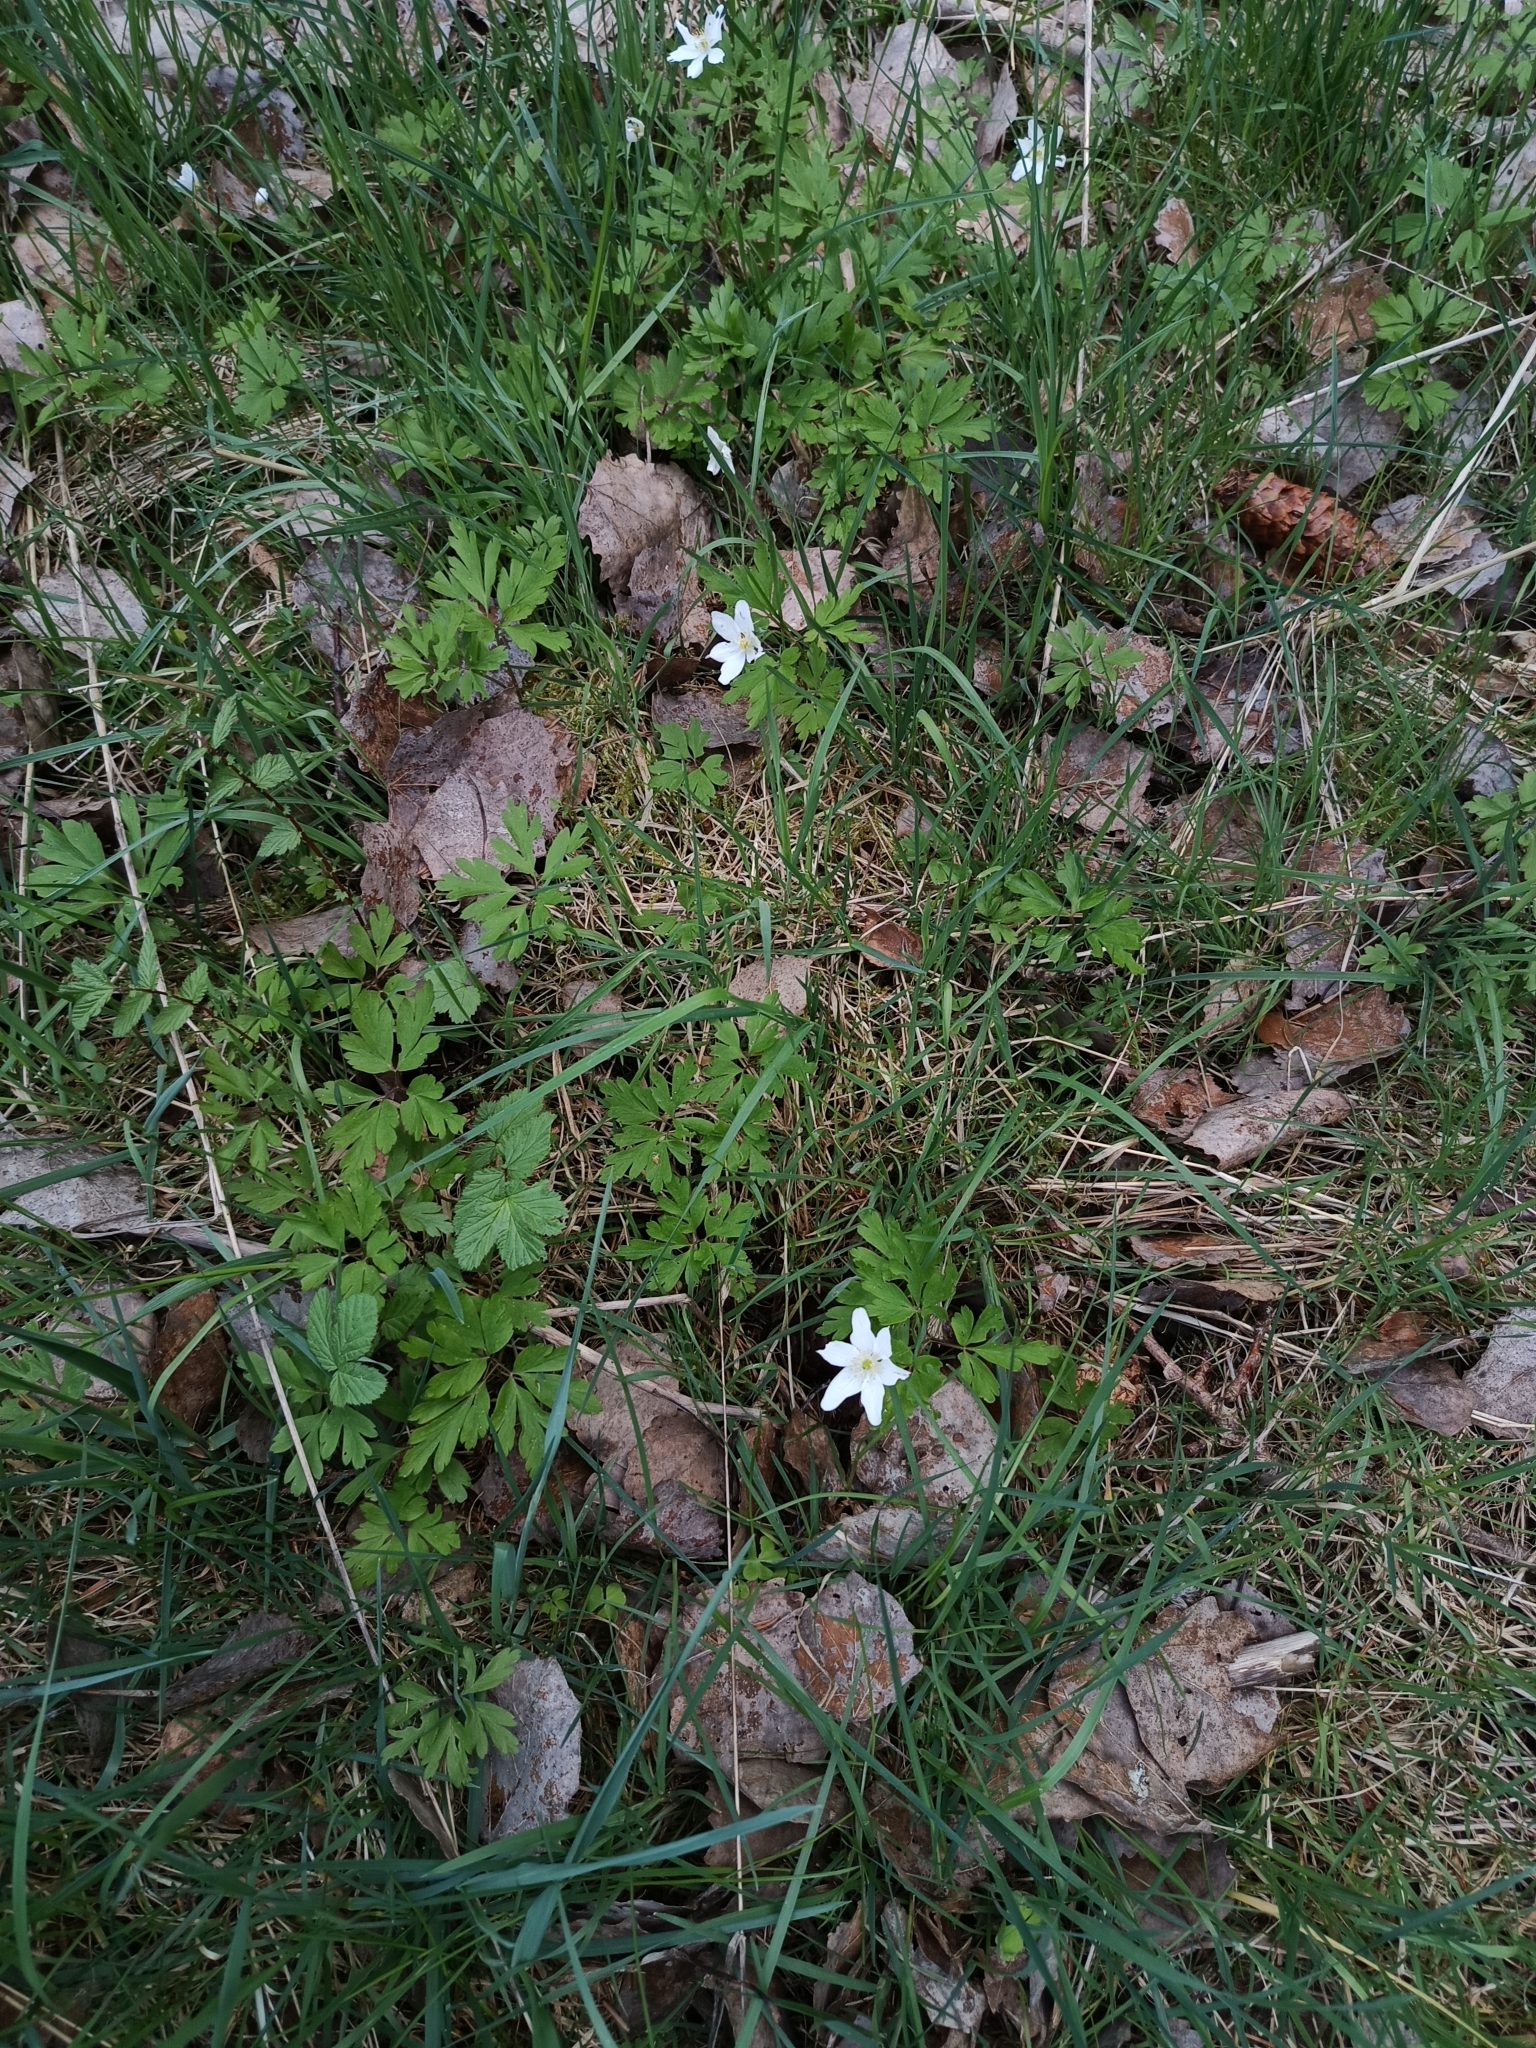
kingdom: Plantae
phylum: Tracheophyta
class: Magnoliopsida
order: Ranunculales
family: Ranunculaceae
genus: Anemone
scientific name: Anemone nemorosa
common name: Wood anemone
